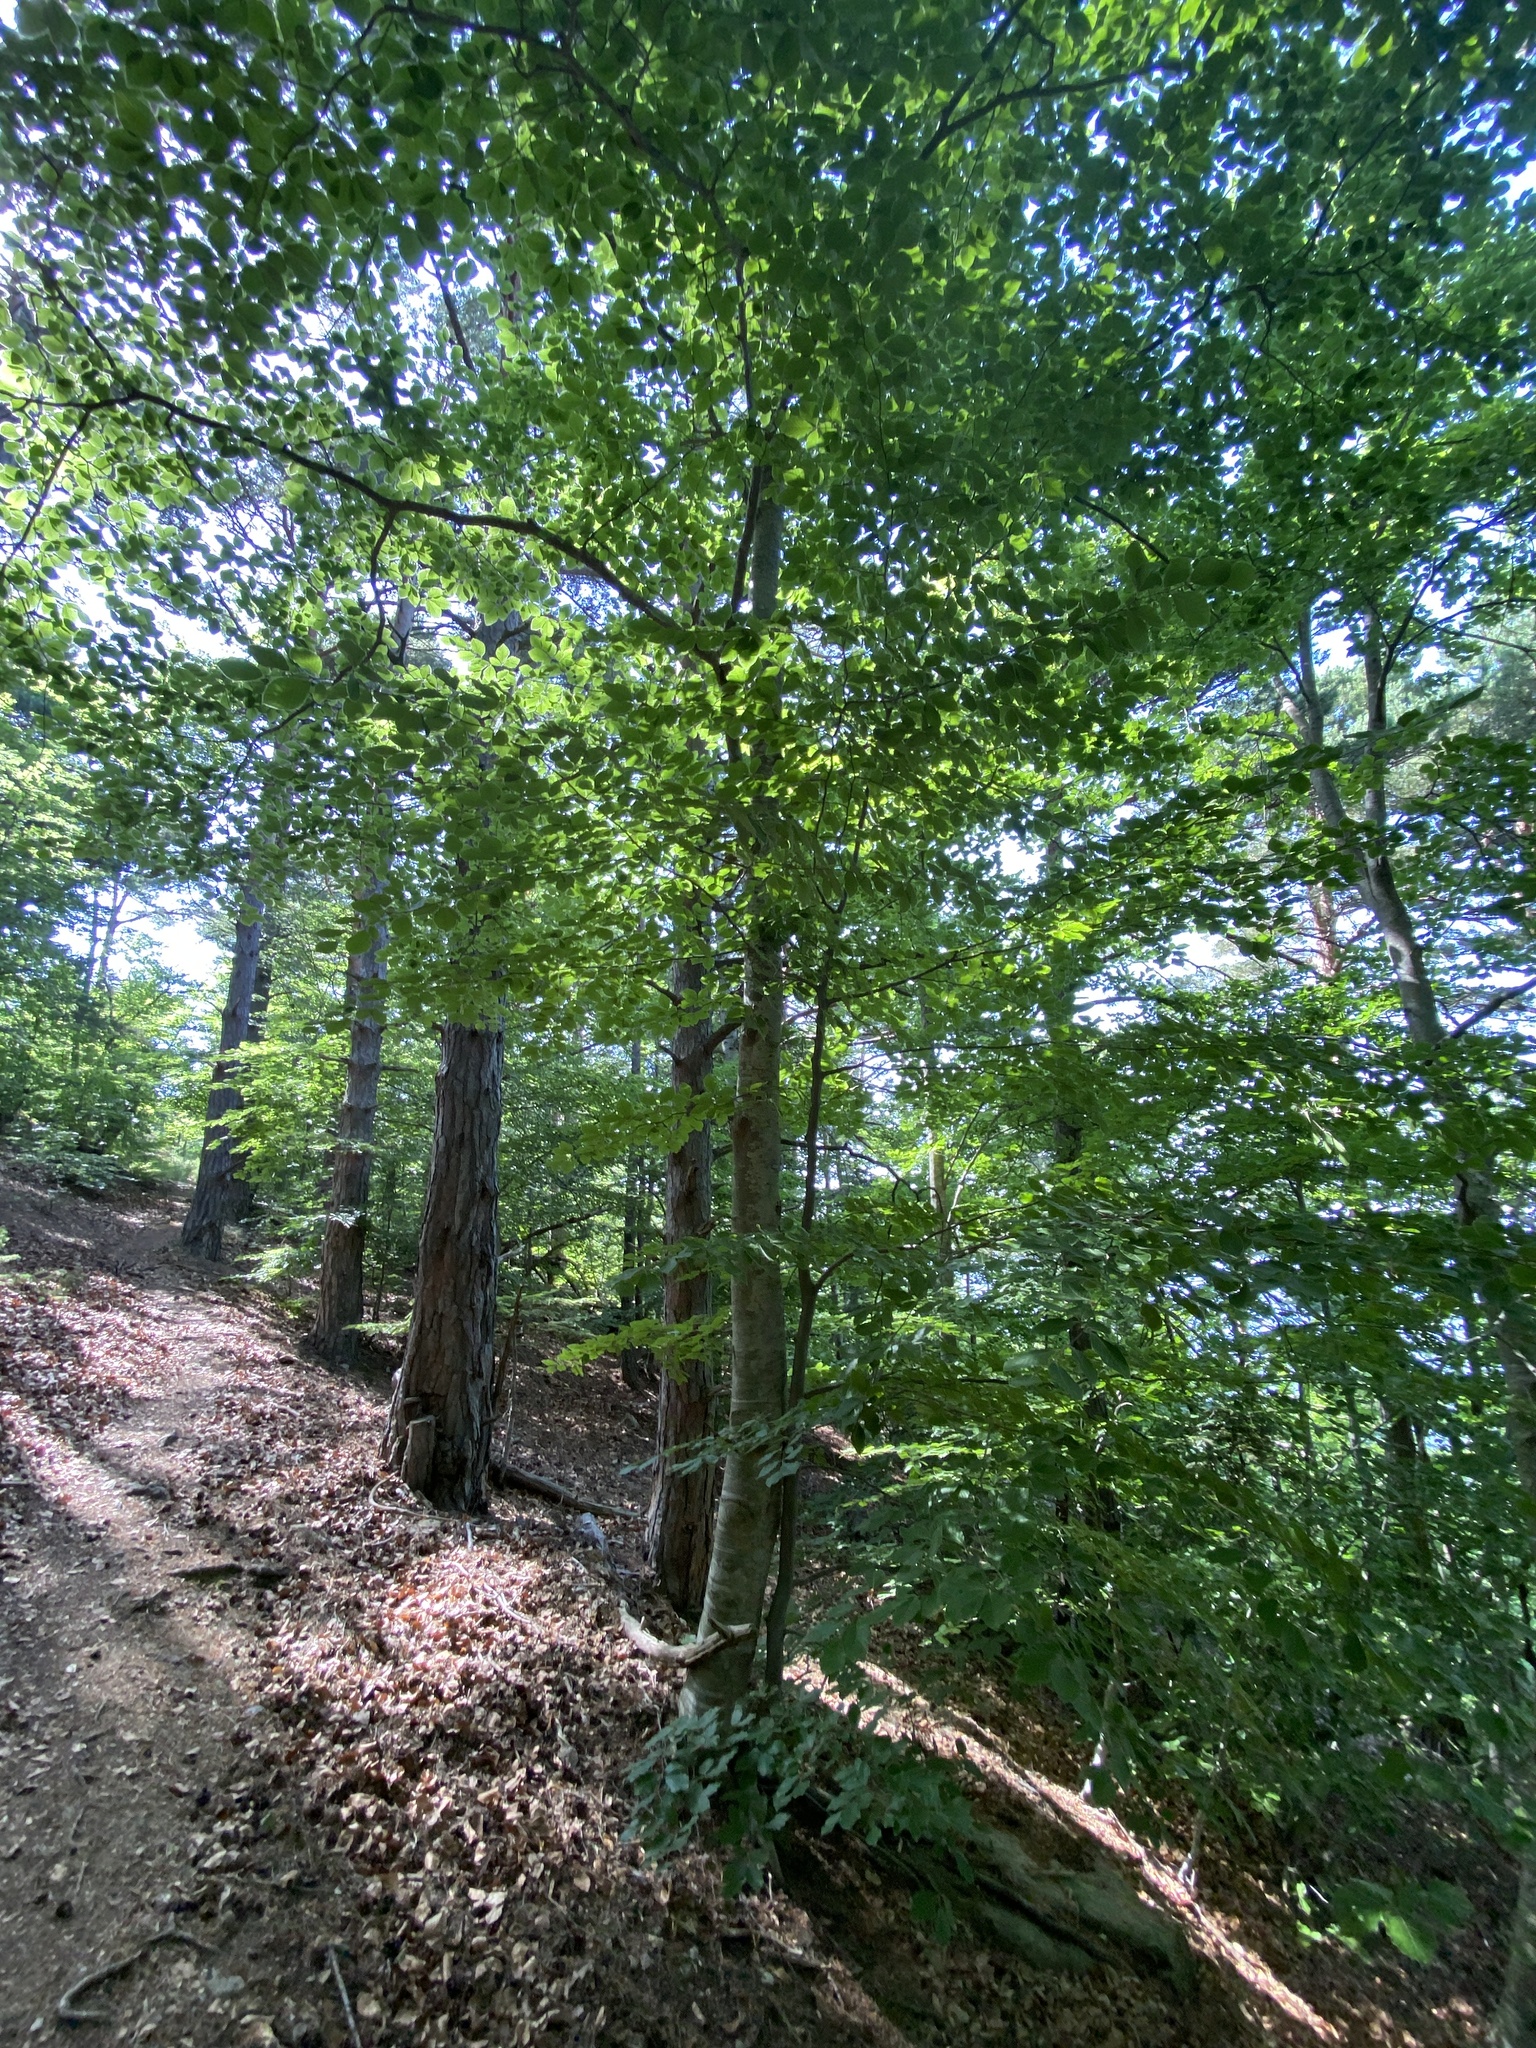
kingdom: Plantae
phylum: Tracheophyta
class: Magnoliopsida
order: Fagales
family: Fagaceae
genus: Fagus
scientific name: Fagus sylvatica
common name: Beech
